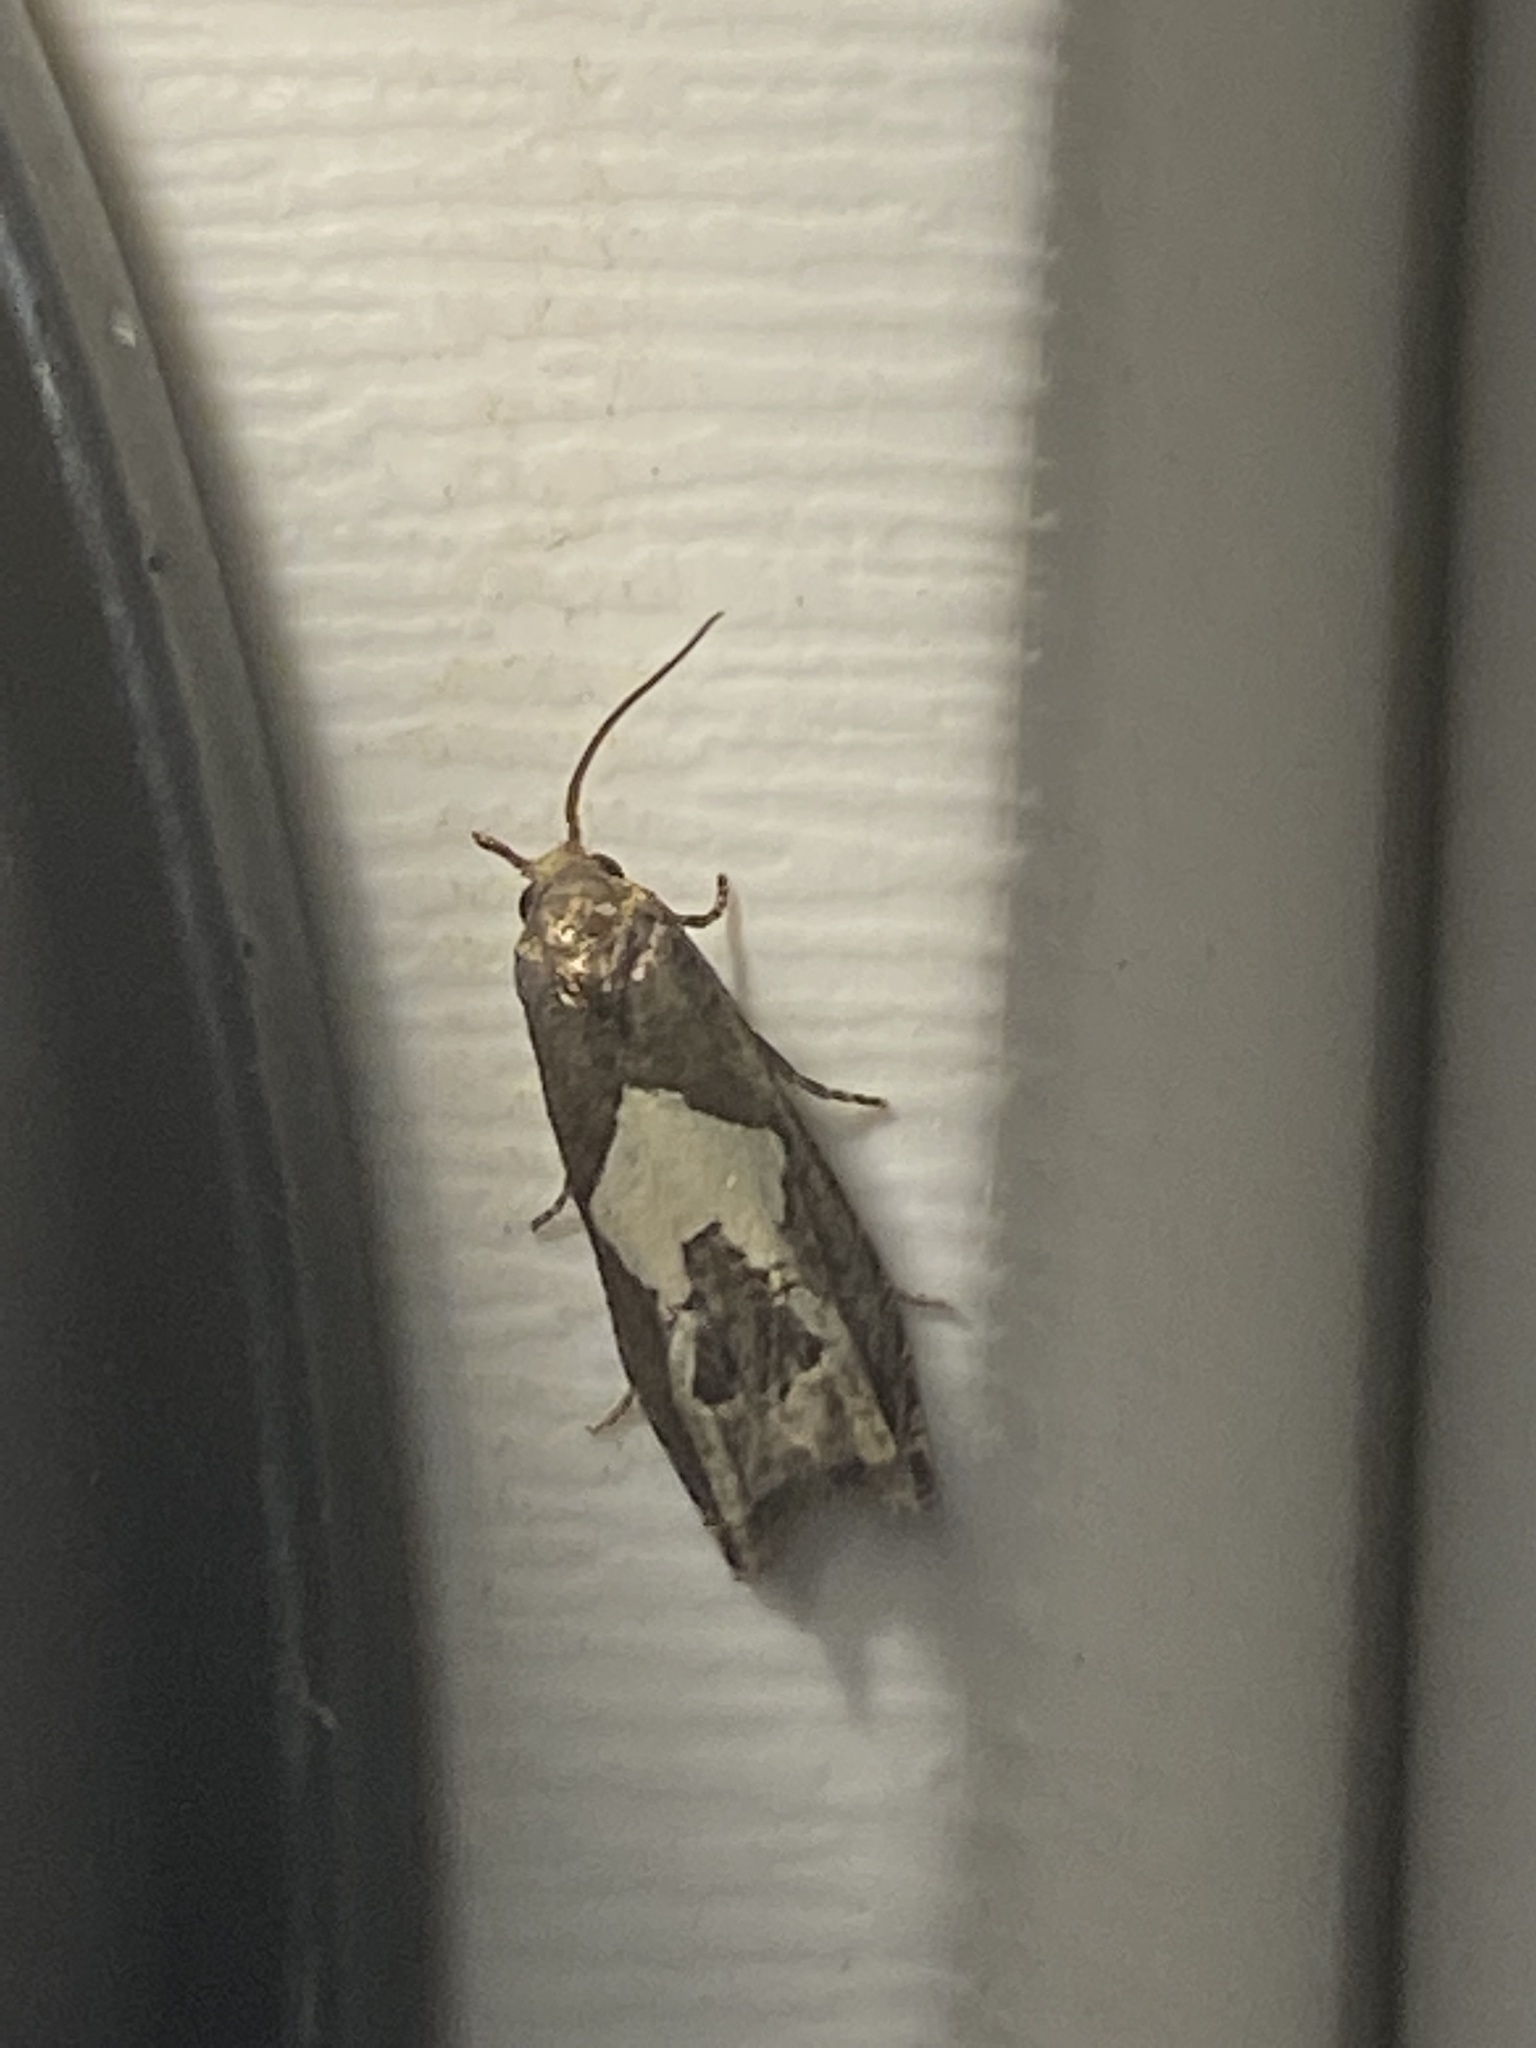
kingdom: Animalia
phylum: Arthropoda
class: Insecta
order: Lepidoptera
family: Tortricidae
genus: Epiblema
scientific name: Epiblema otiosana
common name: Bidens borer moth
